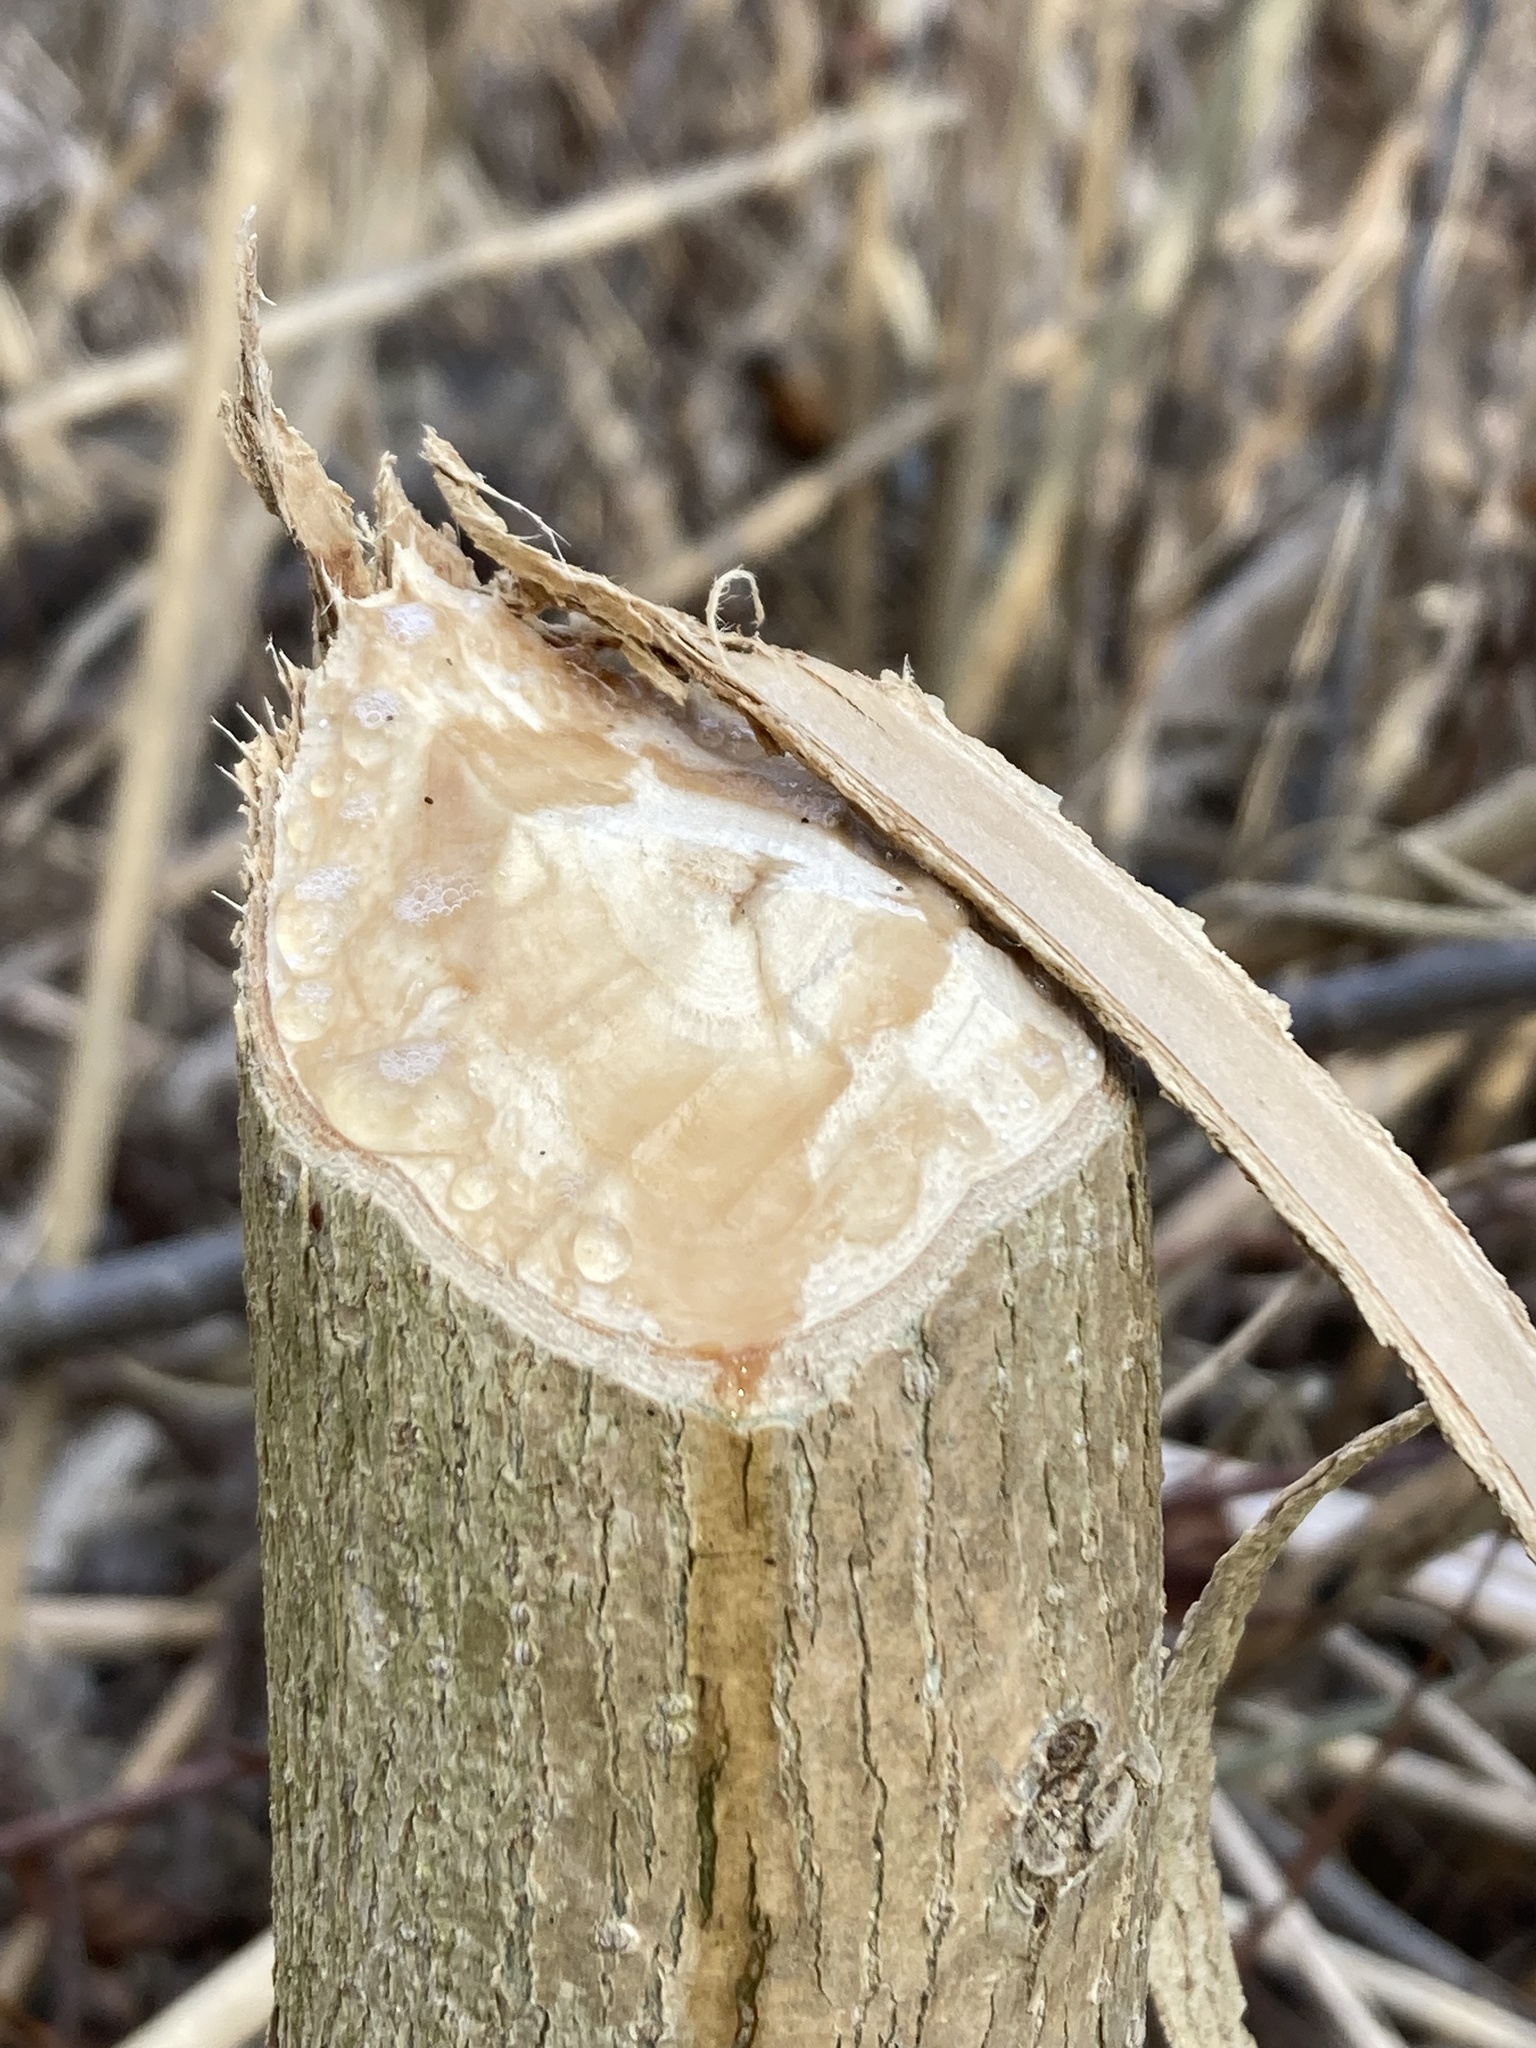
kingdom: Animalia
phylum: Chordata
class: Mammalia
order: Rodentia
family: Castoridae
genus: Castor
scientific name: Castor canadensis
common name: American beaver
